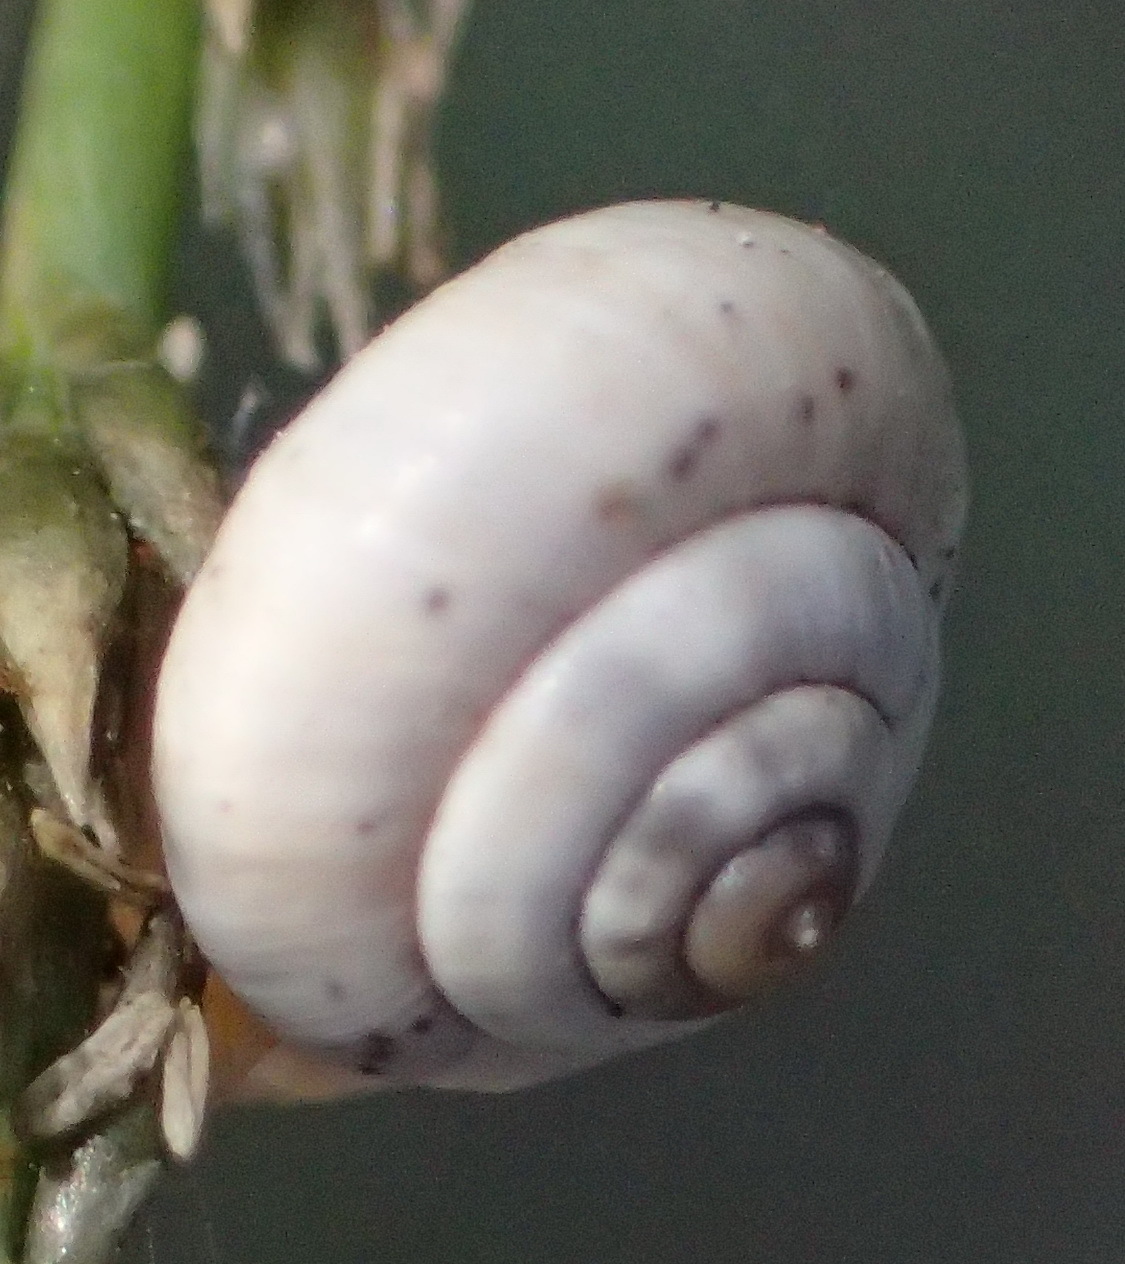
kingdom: Animalia
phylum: Mollusca
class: Gastropoda
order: Stylommatophora
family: Helicidae
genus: Theba
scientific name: Theba pisana
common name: White snail
